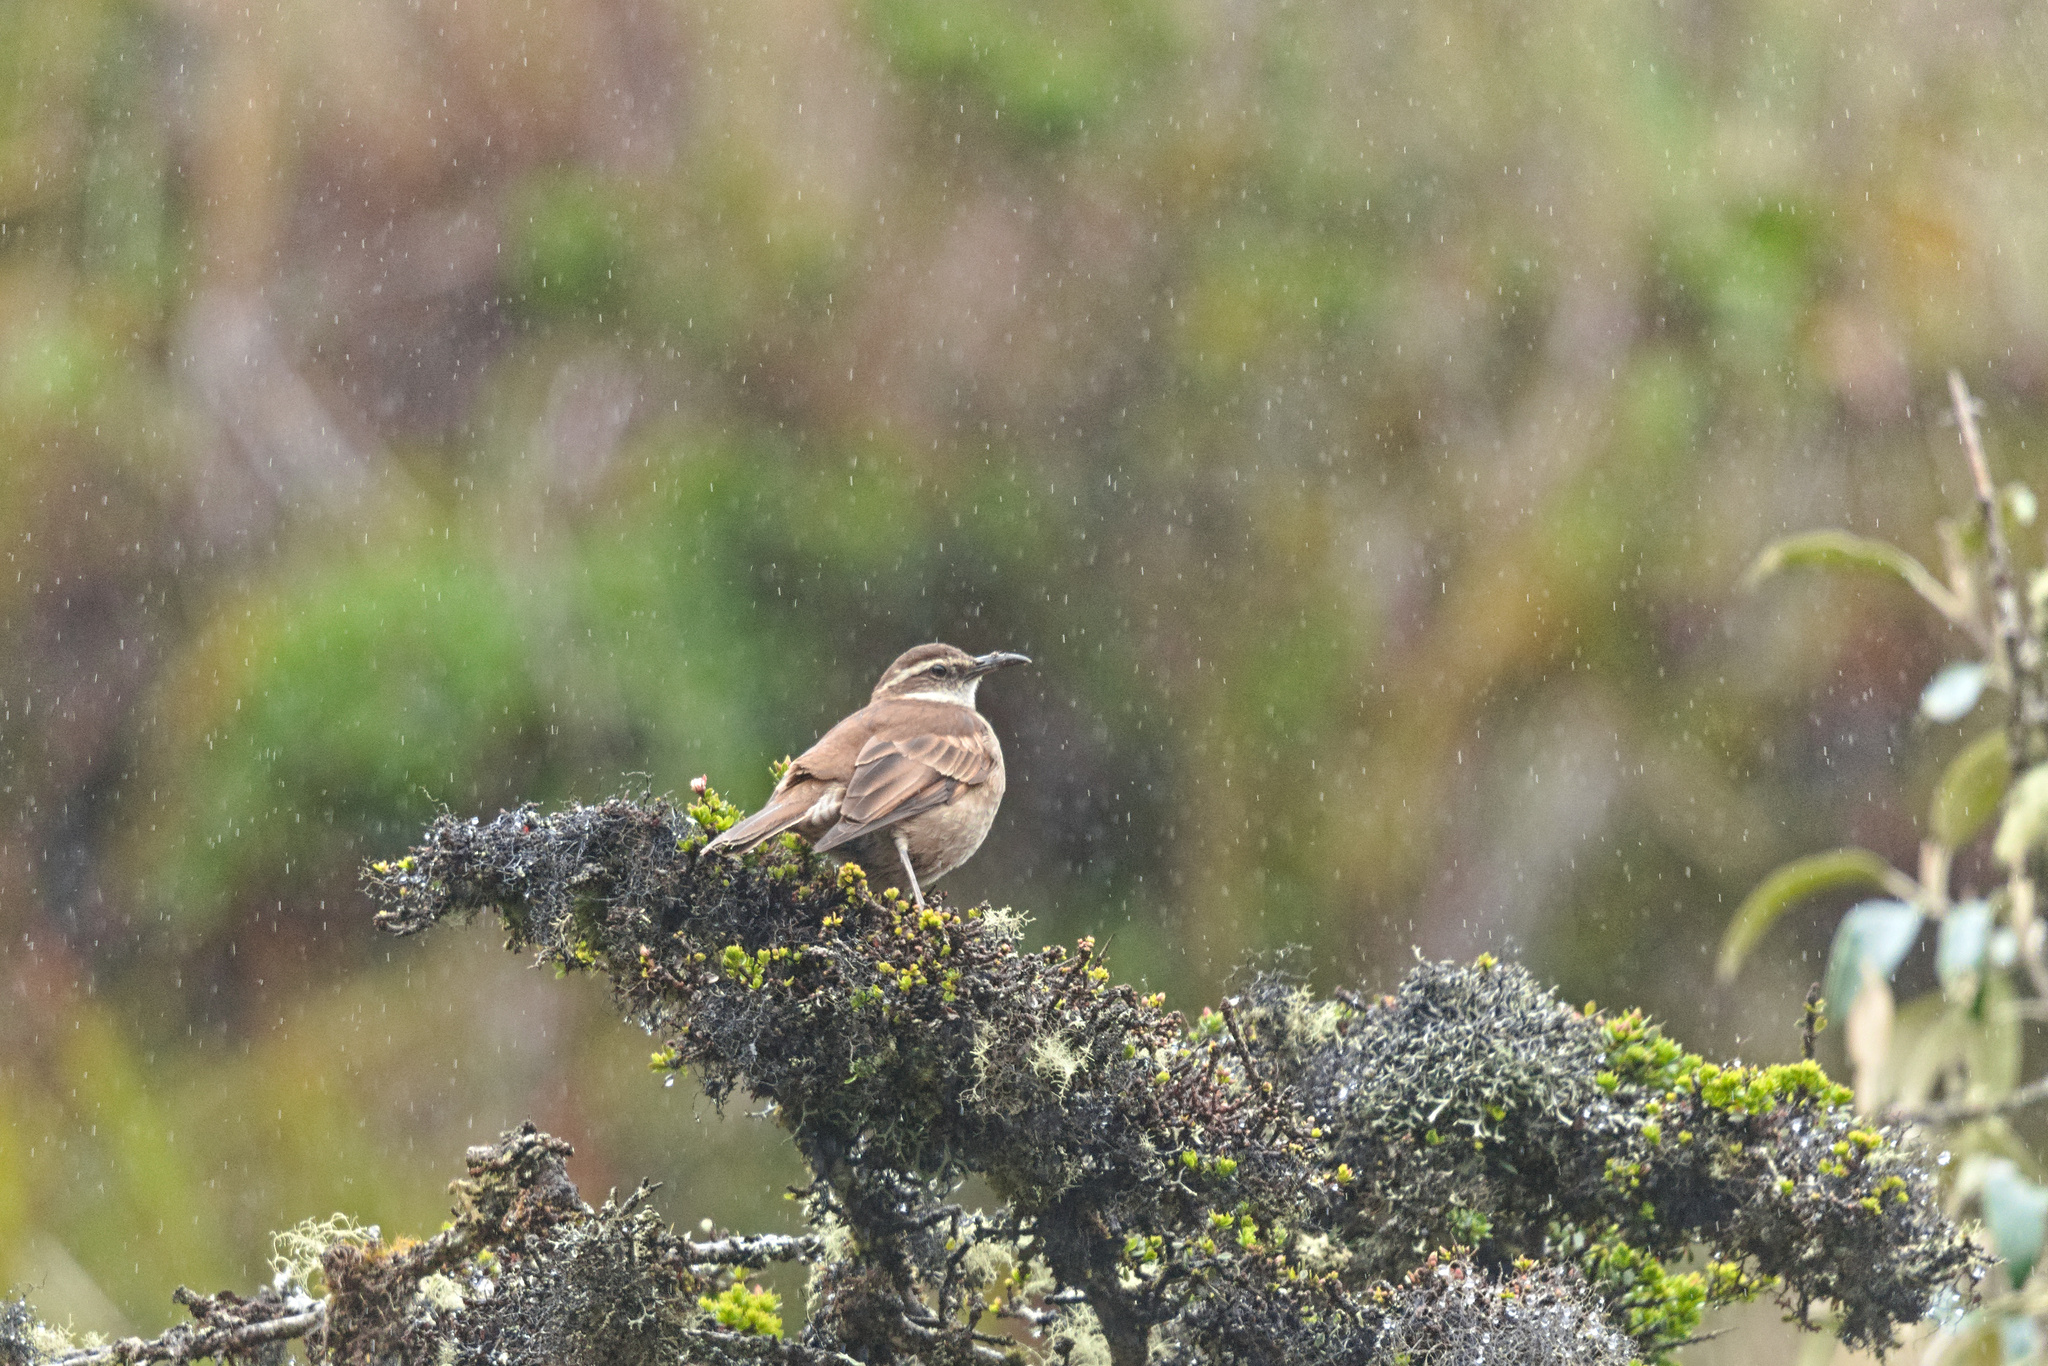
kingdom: Animalia
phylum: Chordata
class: Aves
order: Passeriformes
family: Furnariidae
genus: Cinclodes
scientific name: Cinclodes excelsior
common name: Stout-billed cinclodes
